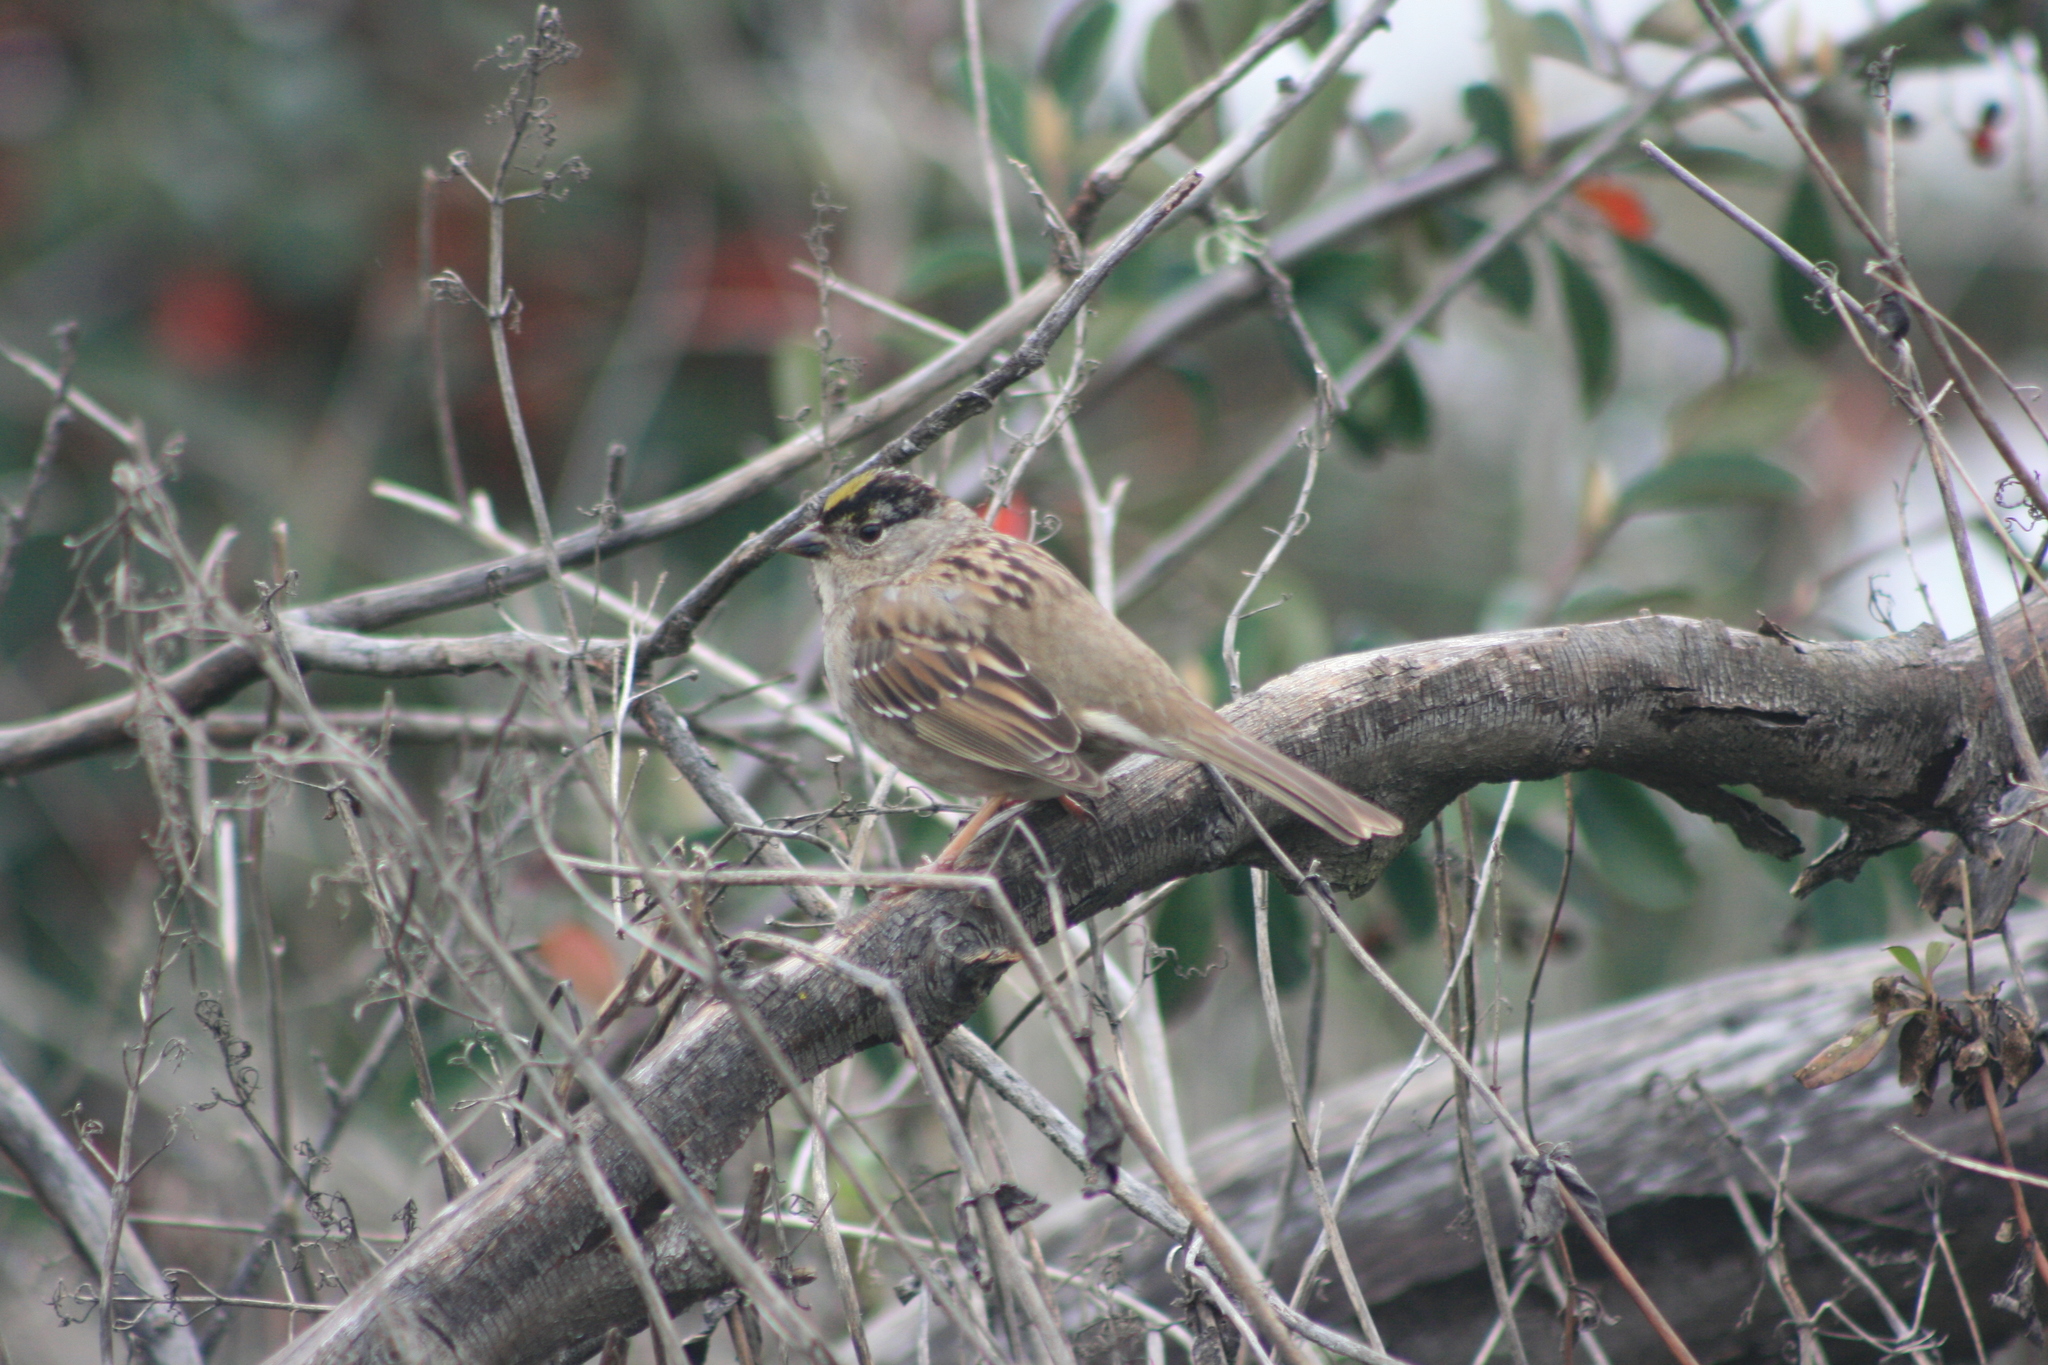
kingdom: Animalia
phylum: Chordata
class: Aves
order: Passeriformes
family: Passerellidae
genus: Zonotrichia
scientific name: Zonotrichia atricapilla
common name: Golden-crowned sparrow
